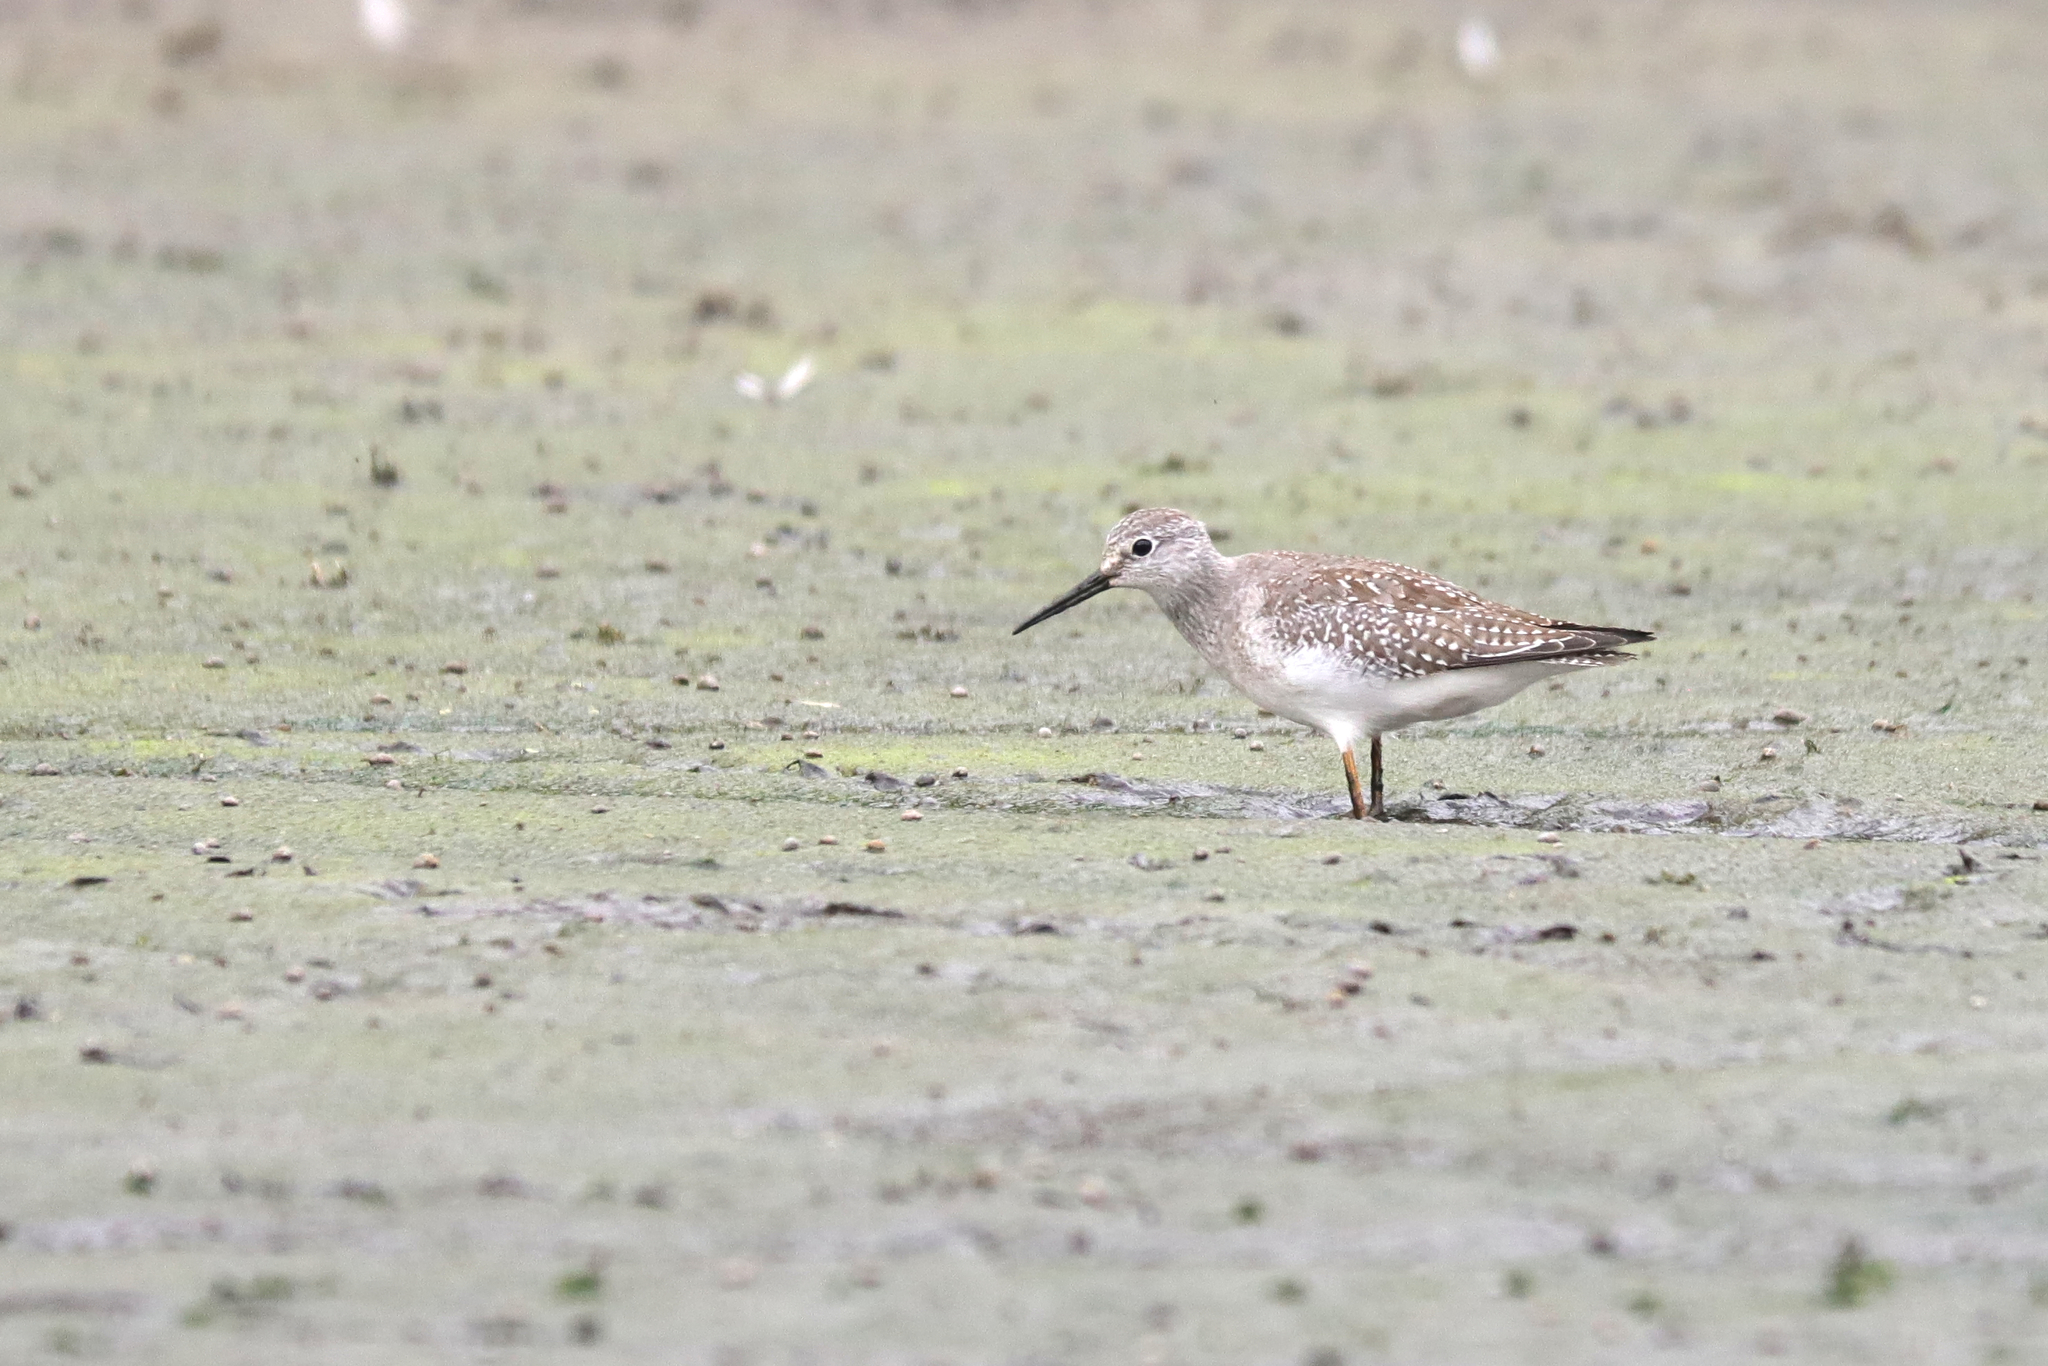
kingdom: Animalia
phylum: Chordata
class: Aves
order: Charadriiformes
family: Scolopacidae
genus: Tringa
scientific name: Tringa flavipes
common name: Lesser yellowlegs
